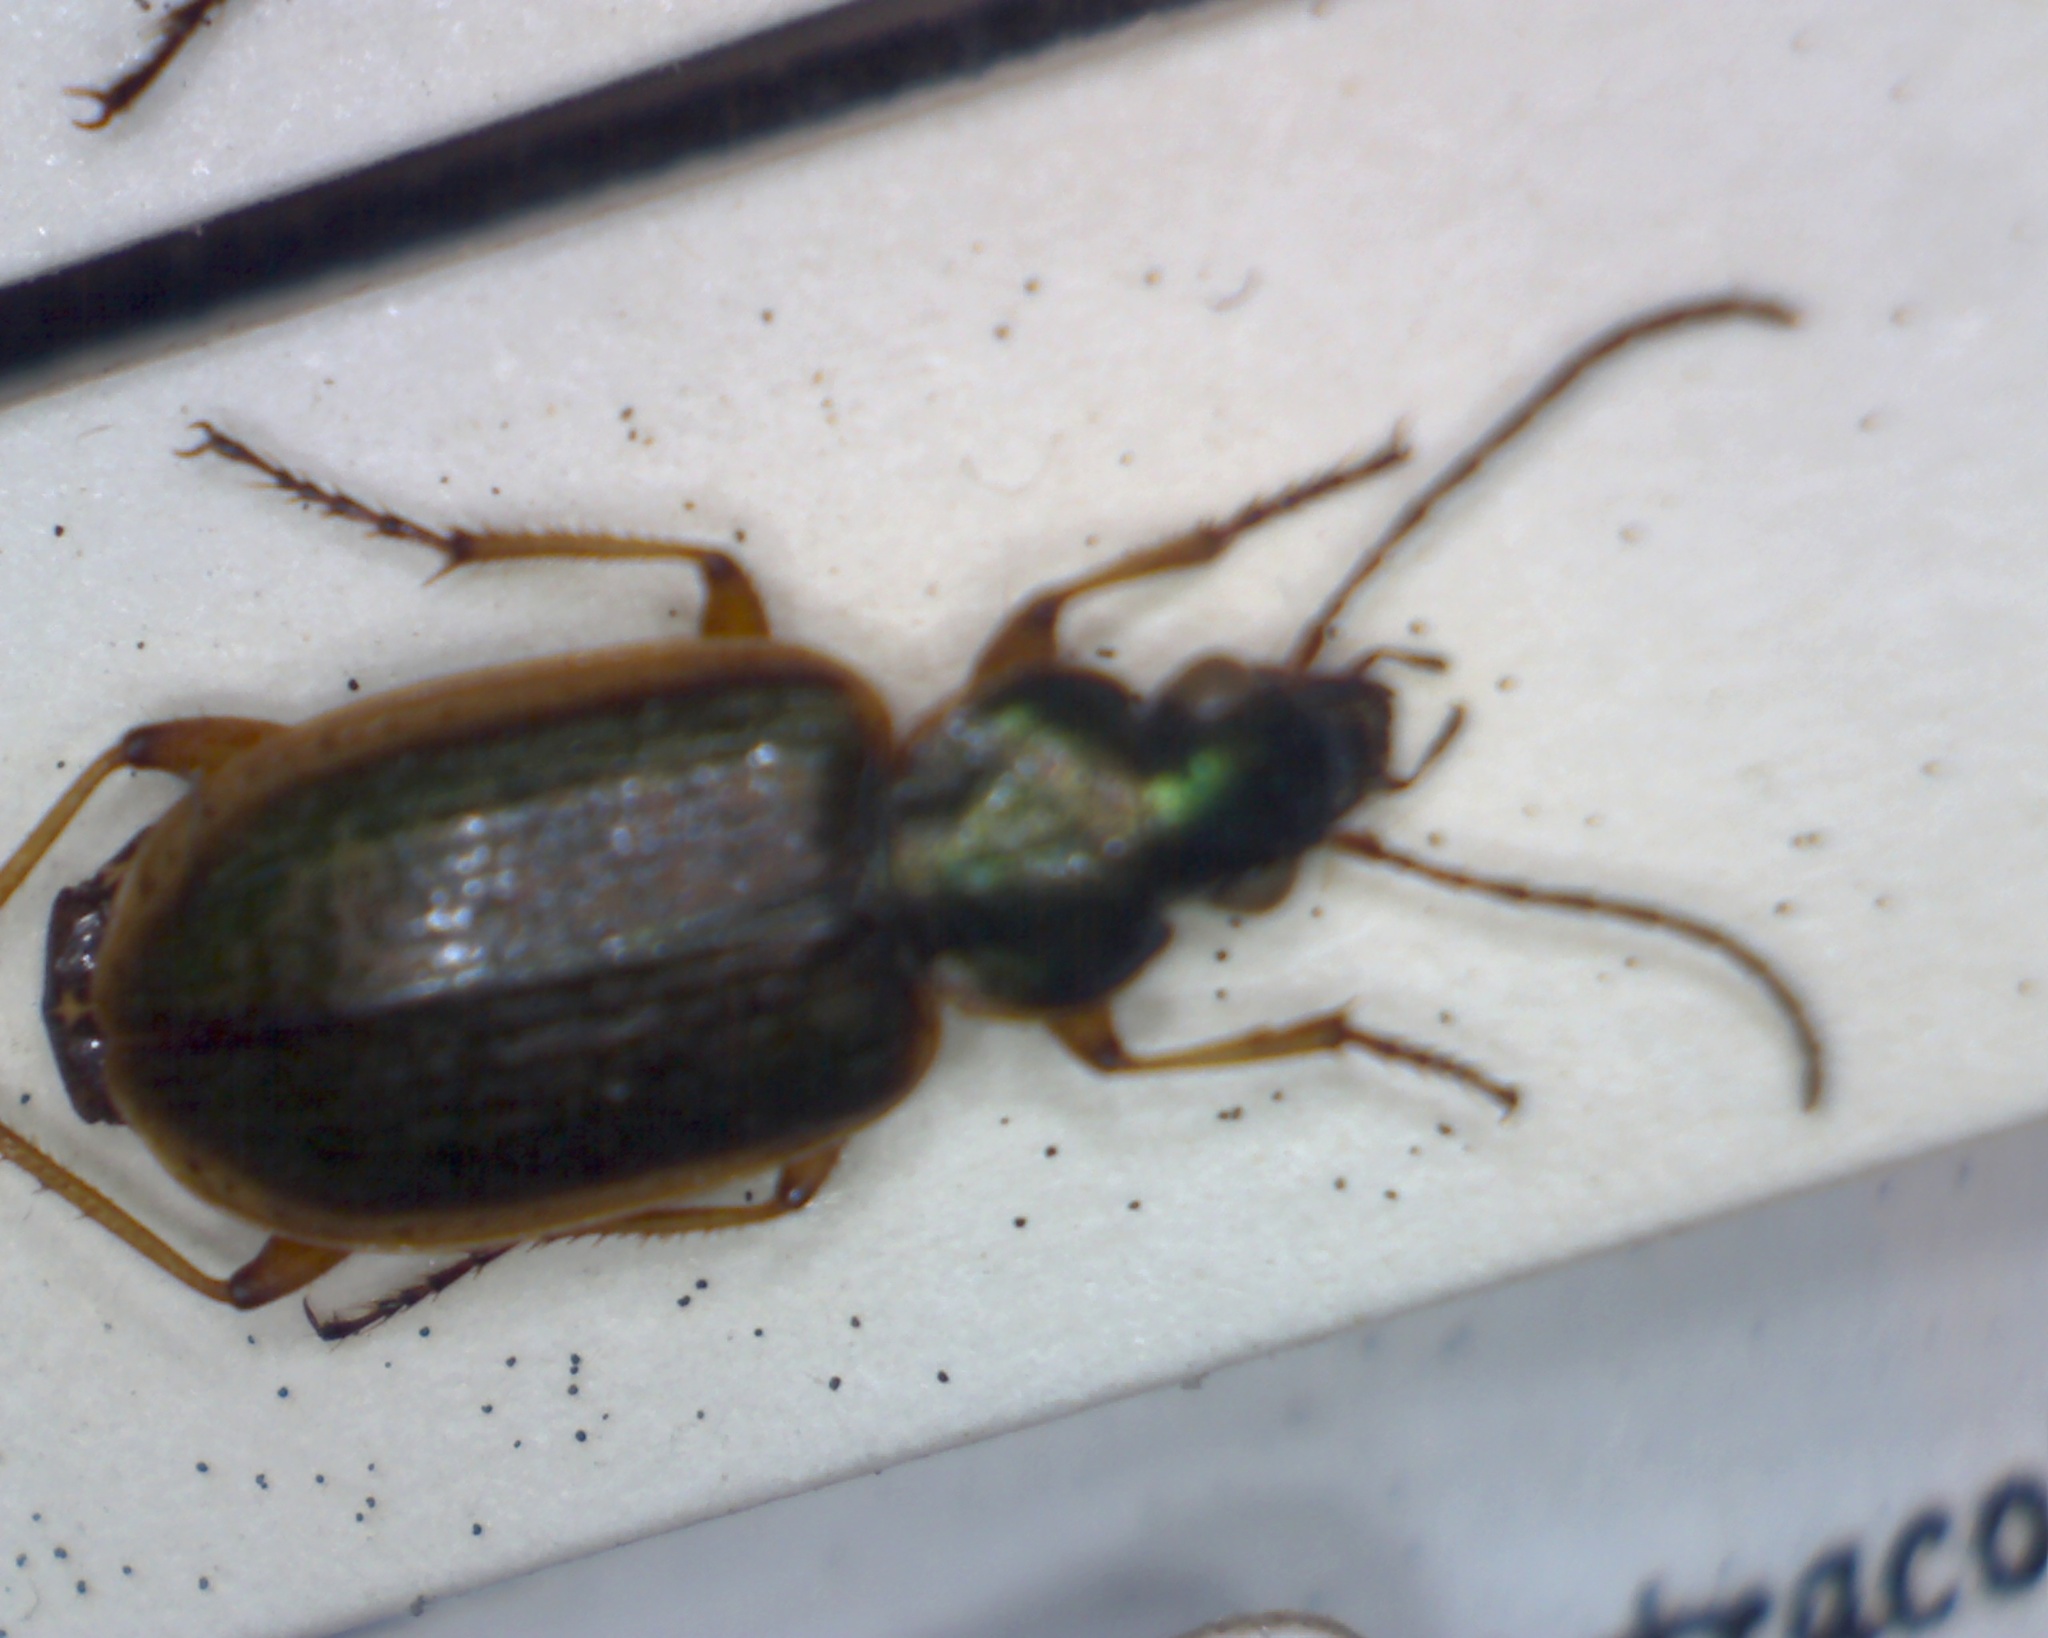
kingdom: Animalia
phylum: Arthropoda
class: Insecta
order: Coleoptera
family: Carabidae
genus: Agonum
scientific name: Agonum marginatum
